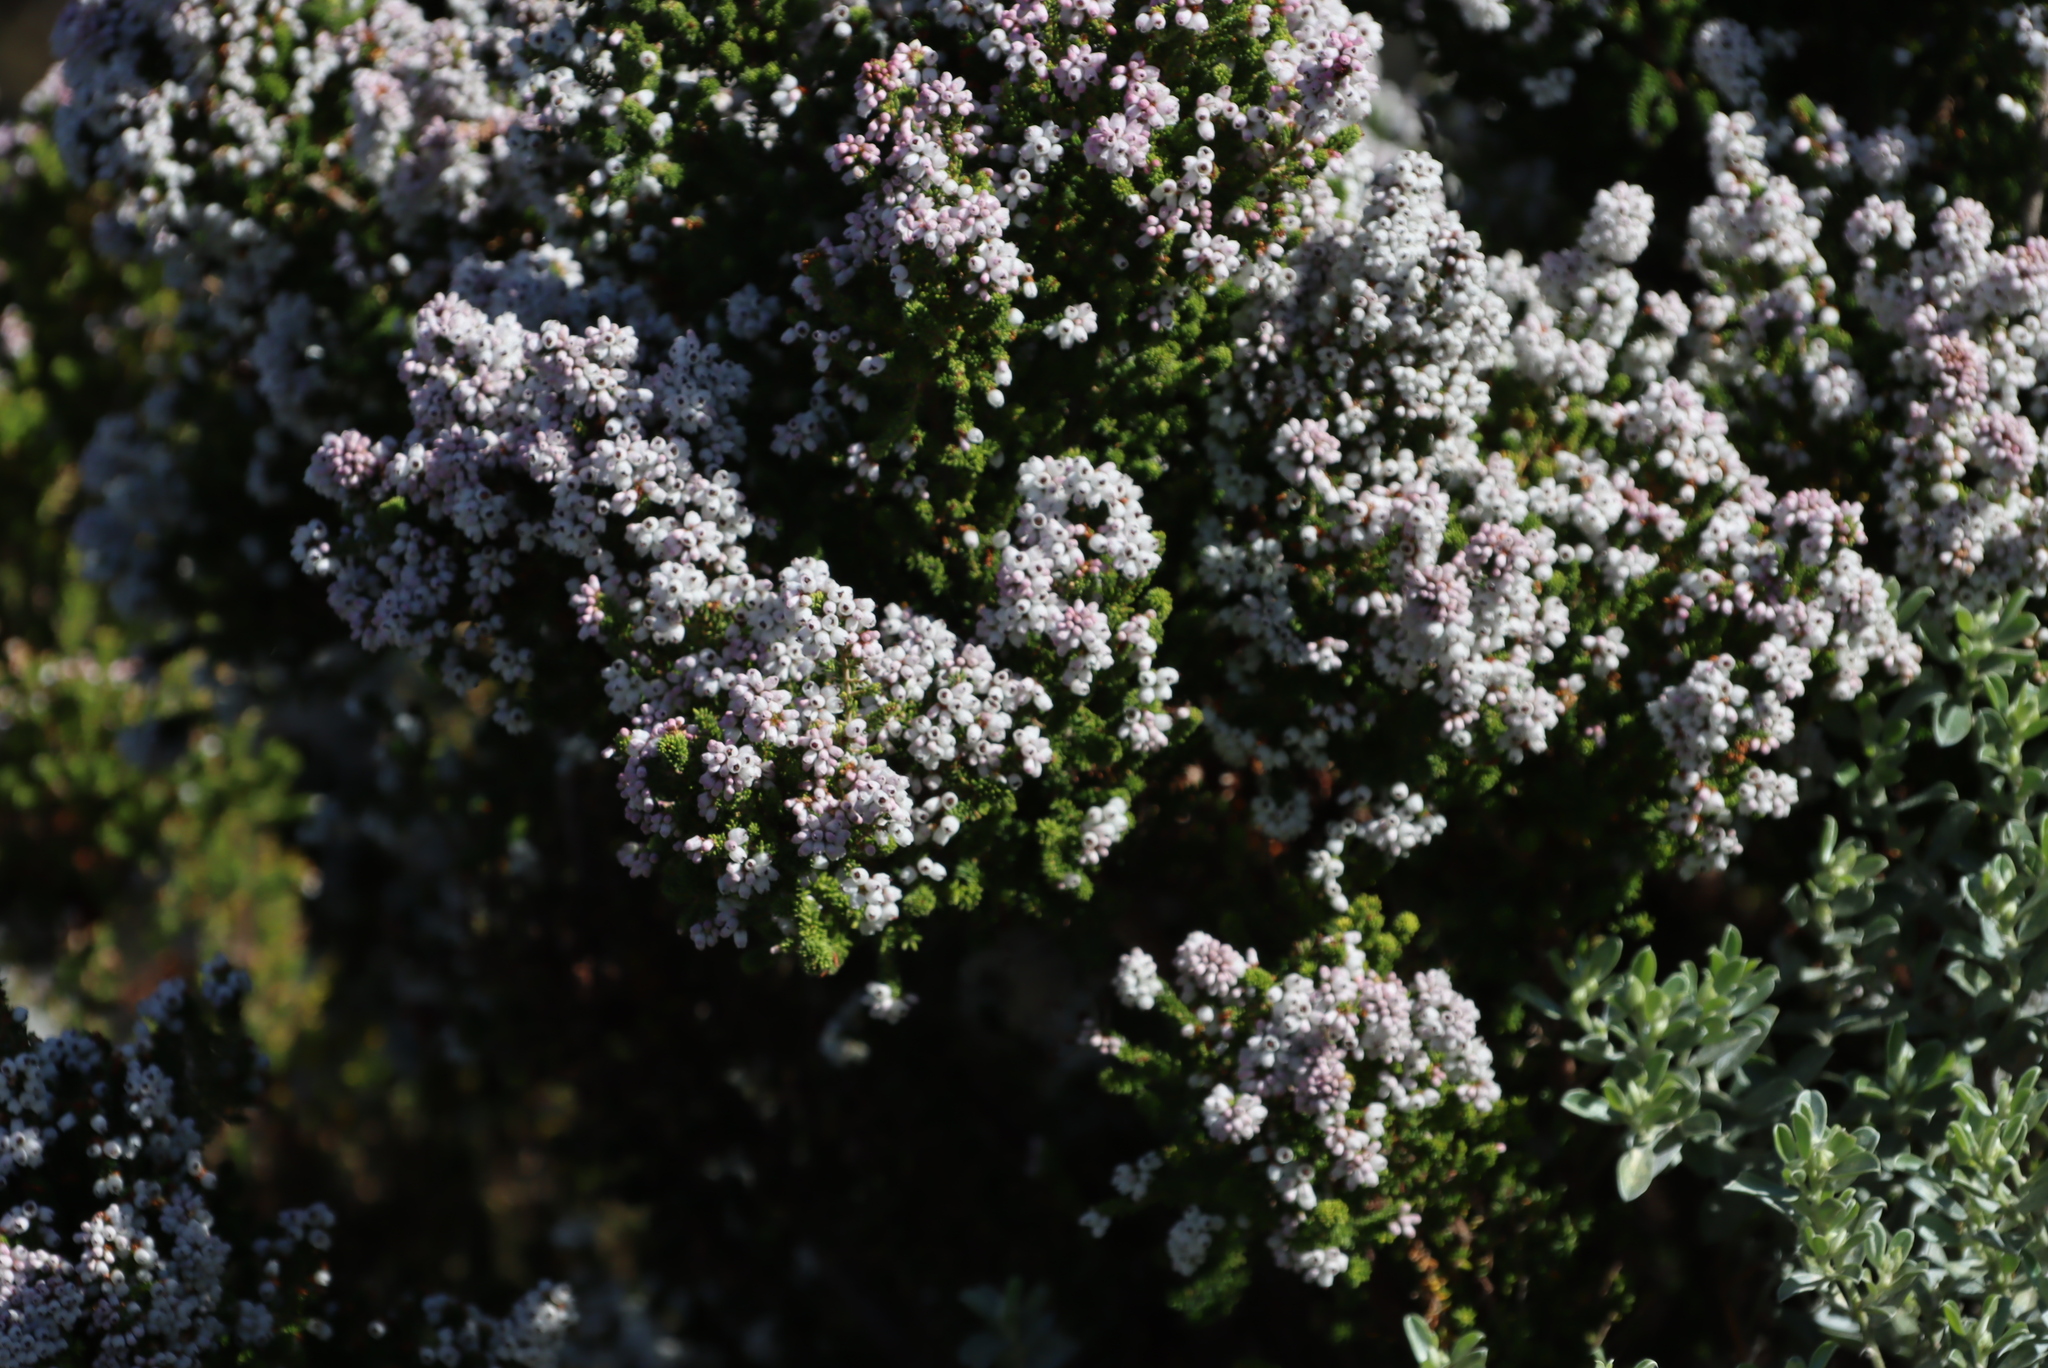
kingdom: Plantae
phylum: Tracheophyta
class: Magnoliopsida
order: Ericales
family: Ericaceae
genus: Erica
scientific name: Erica scabriuscula
